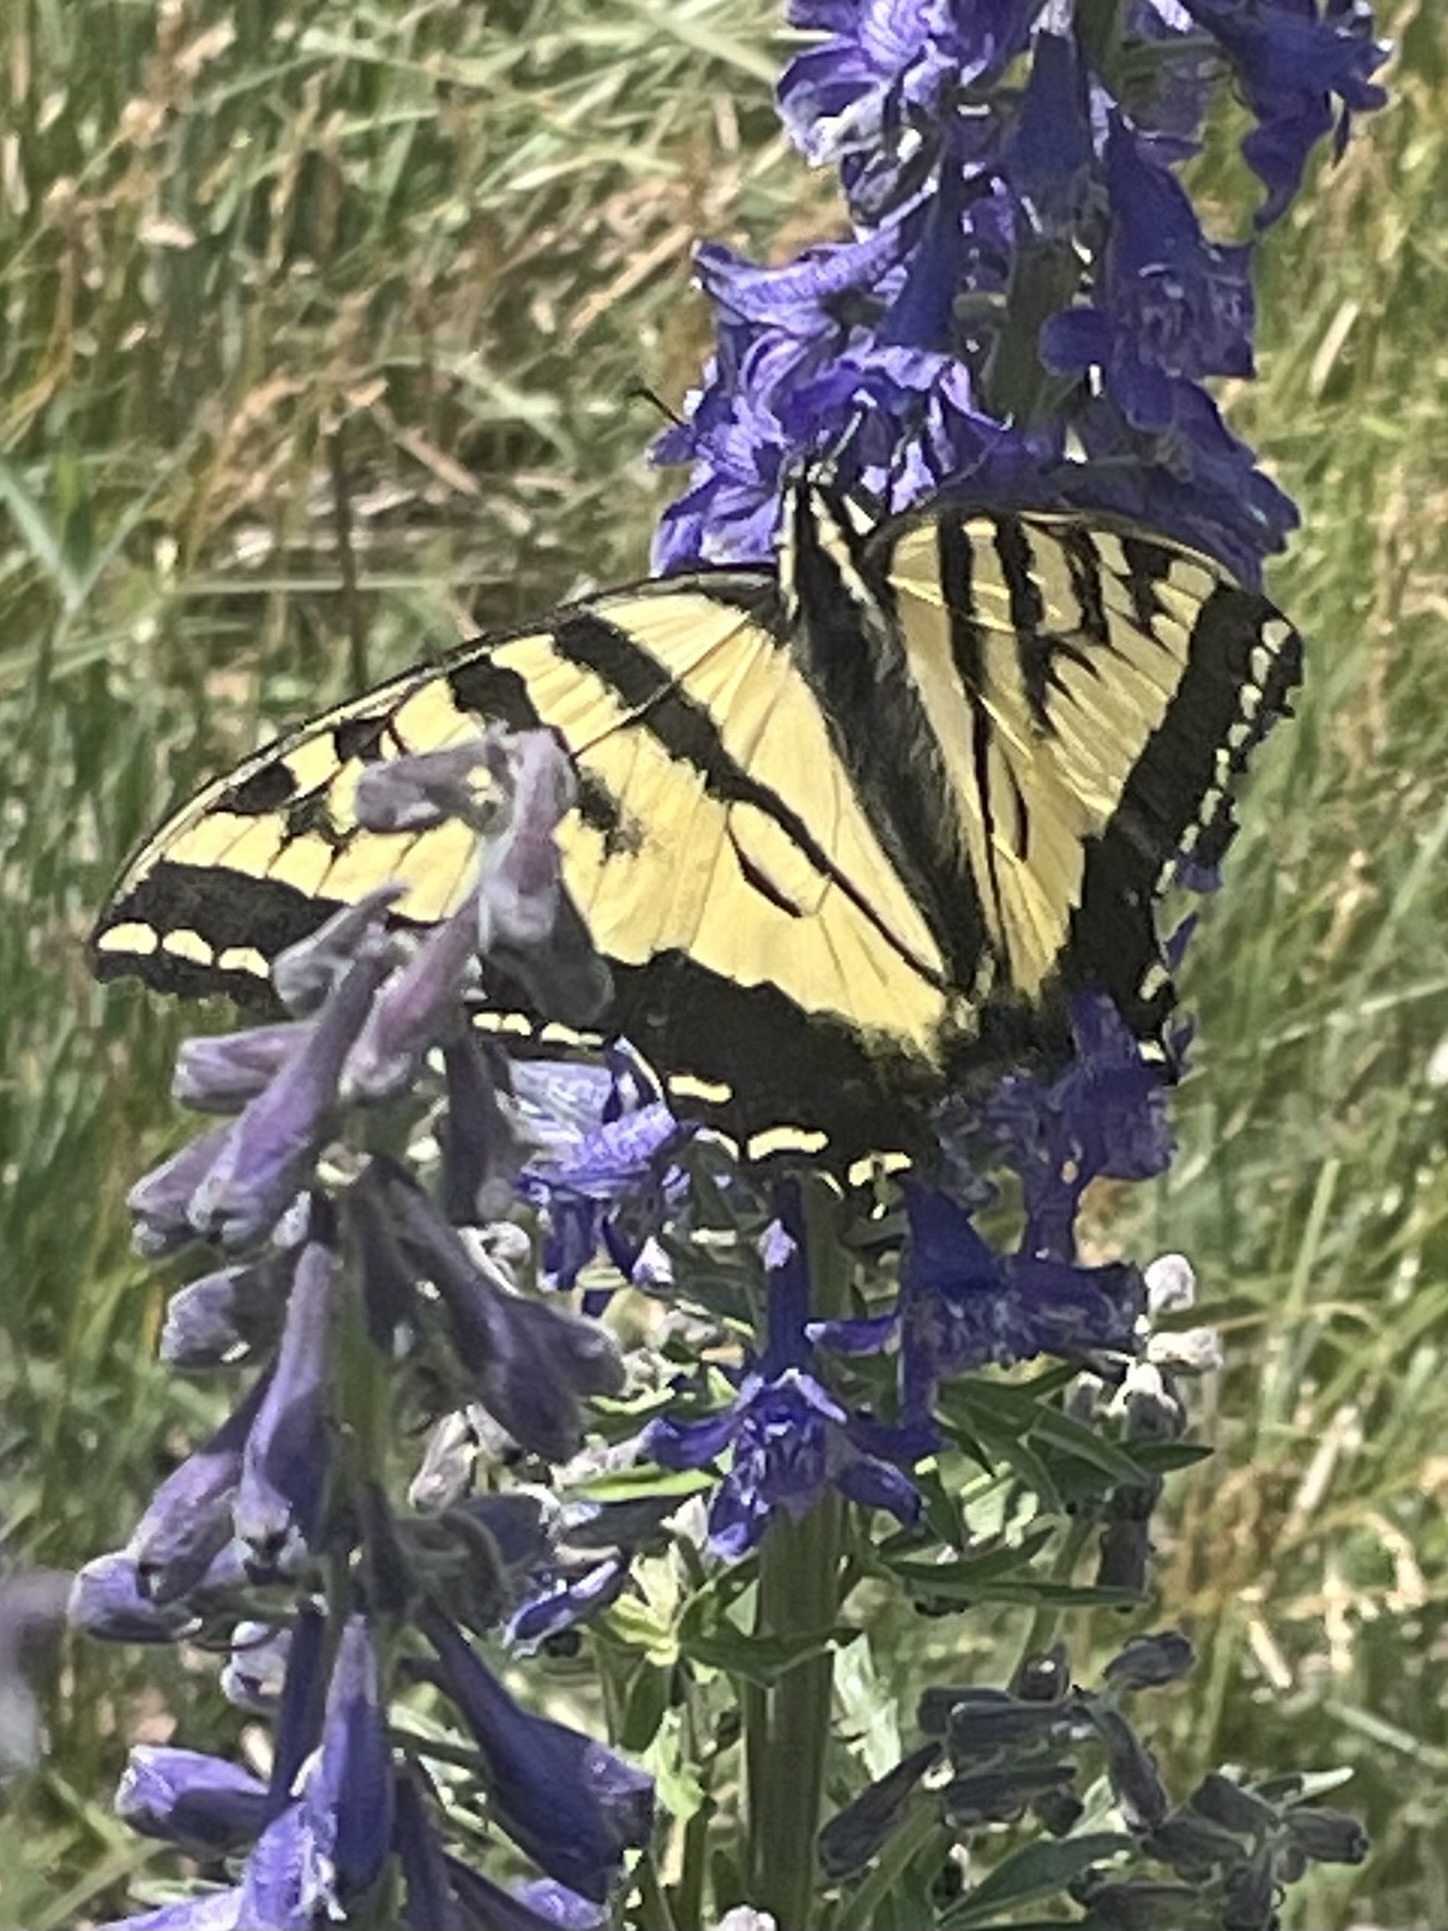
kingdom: Animalia
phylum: Arthropoda
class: Insecta
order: Lepidoptera
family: Papilionidae
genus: Papilio
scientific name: Papilio rutulus
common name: Western tiger swallowtail
